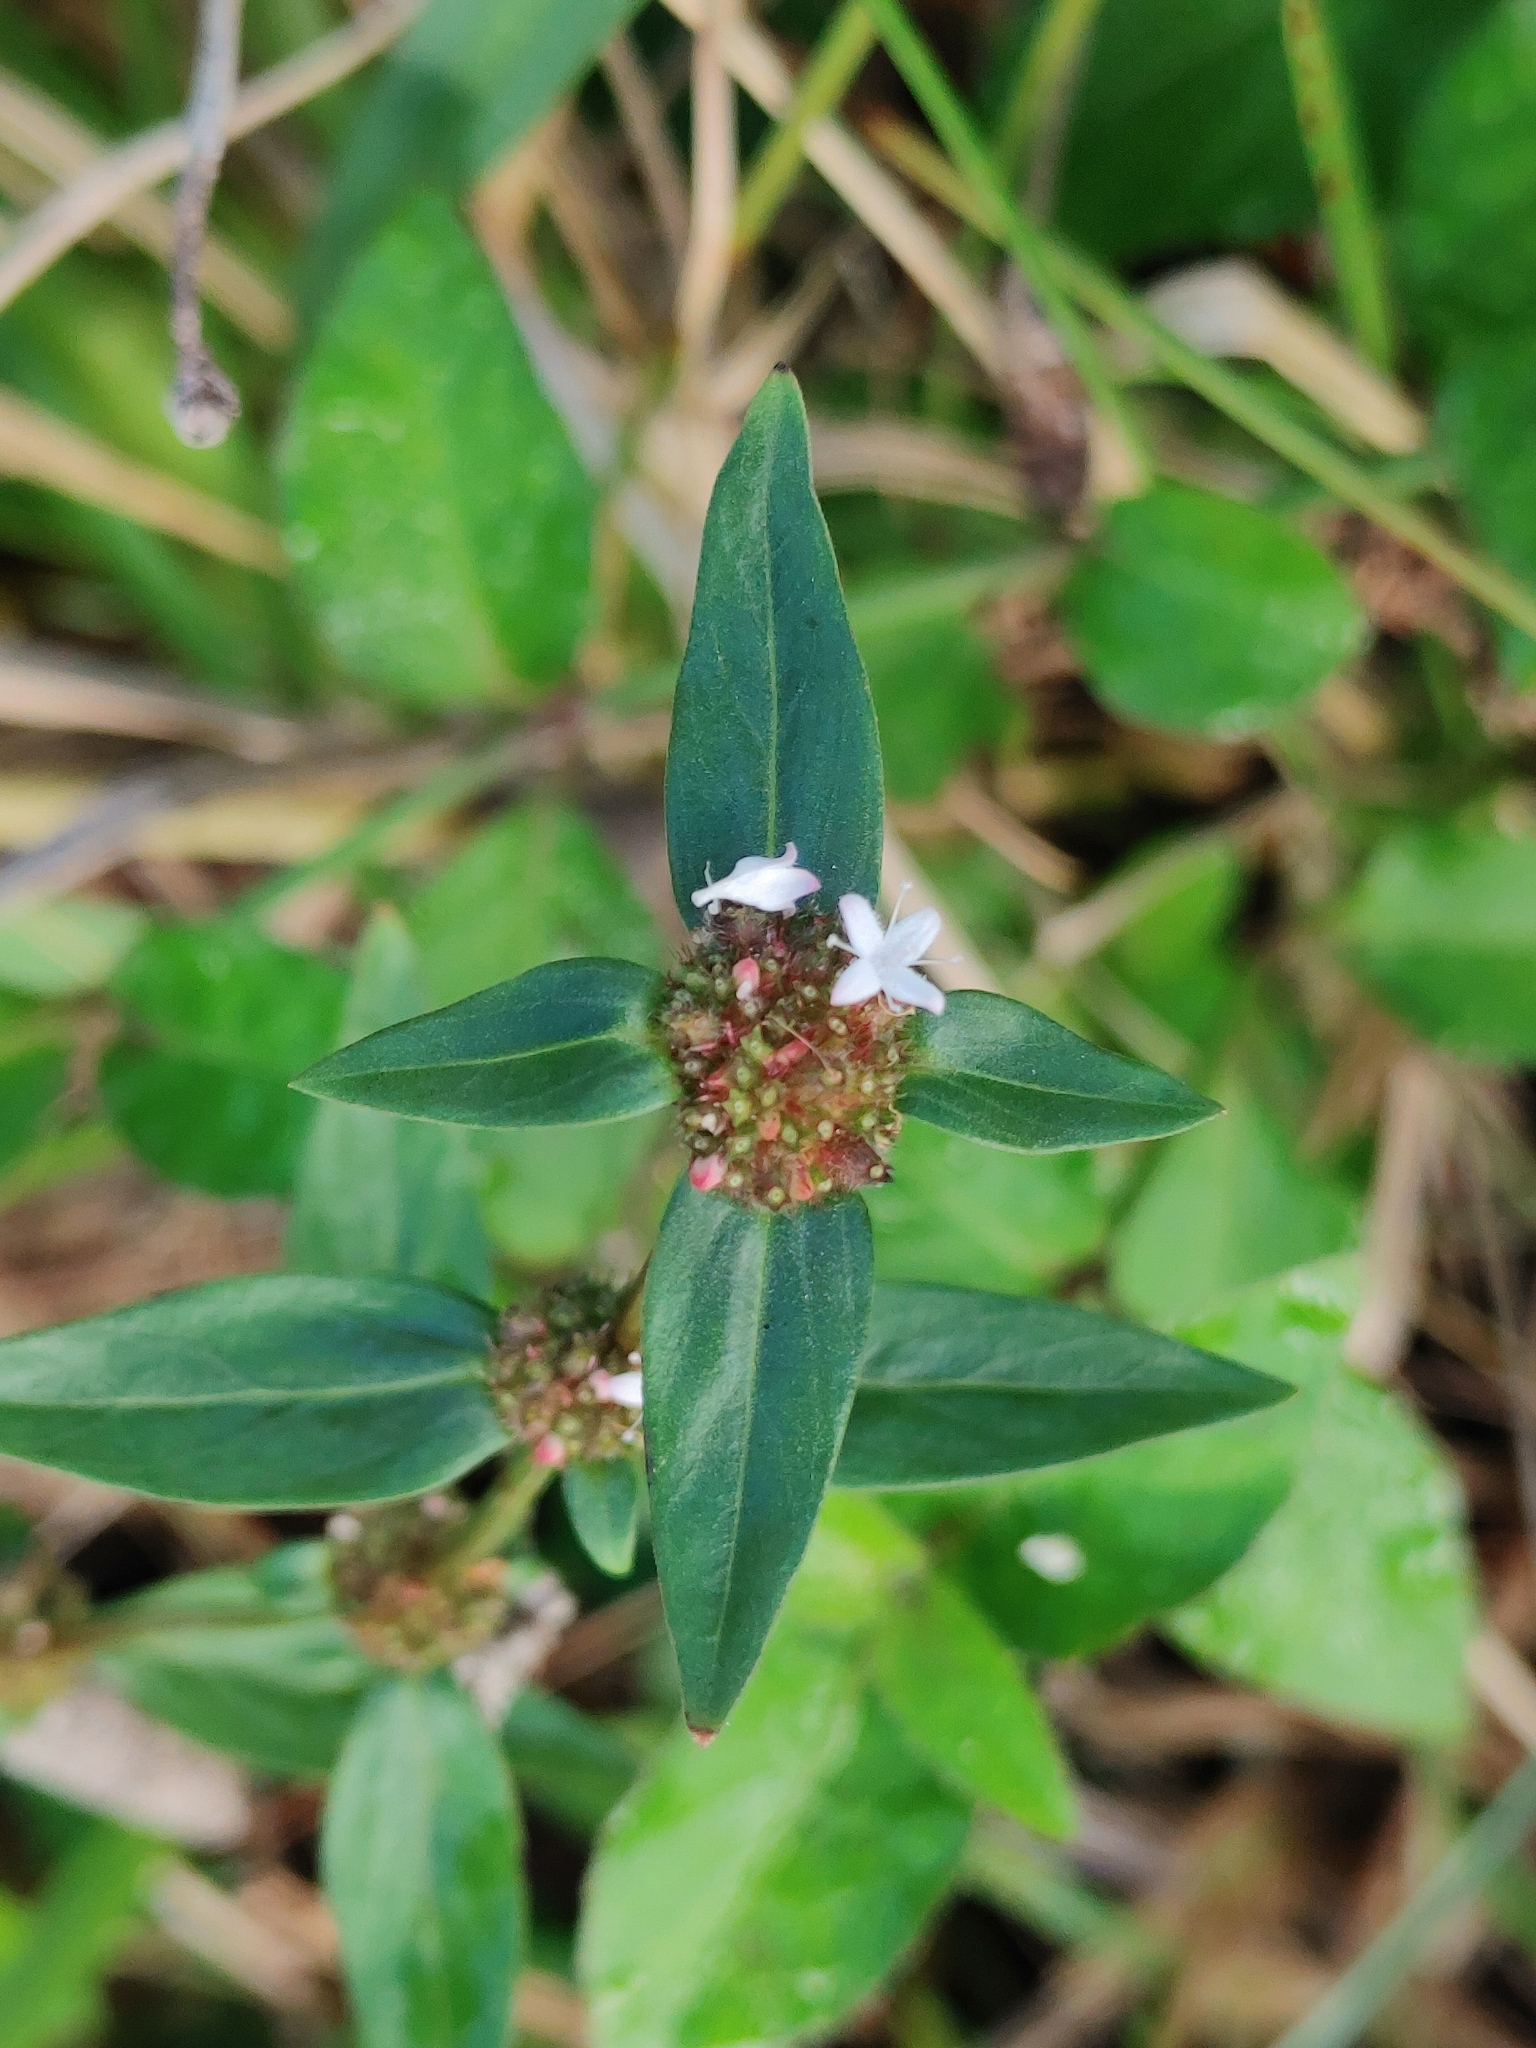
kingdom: Plantae
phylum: Tracheophyta
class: Magnoliopsida
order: Gentianales
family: Rubiaceae
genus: Spermacoce
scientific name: Spermacoce remota
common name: Woodland false buttonweed
